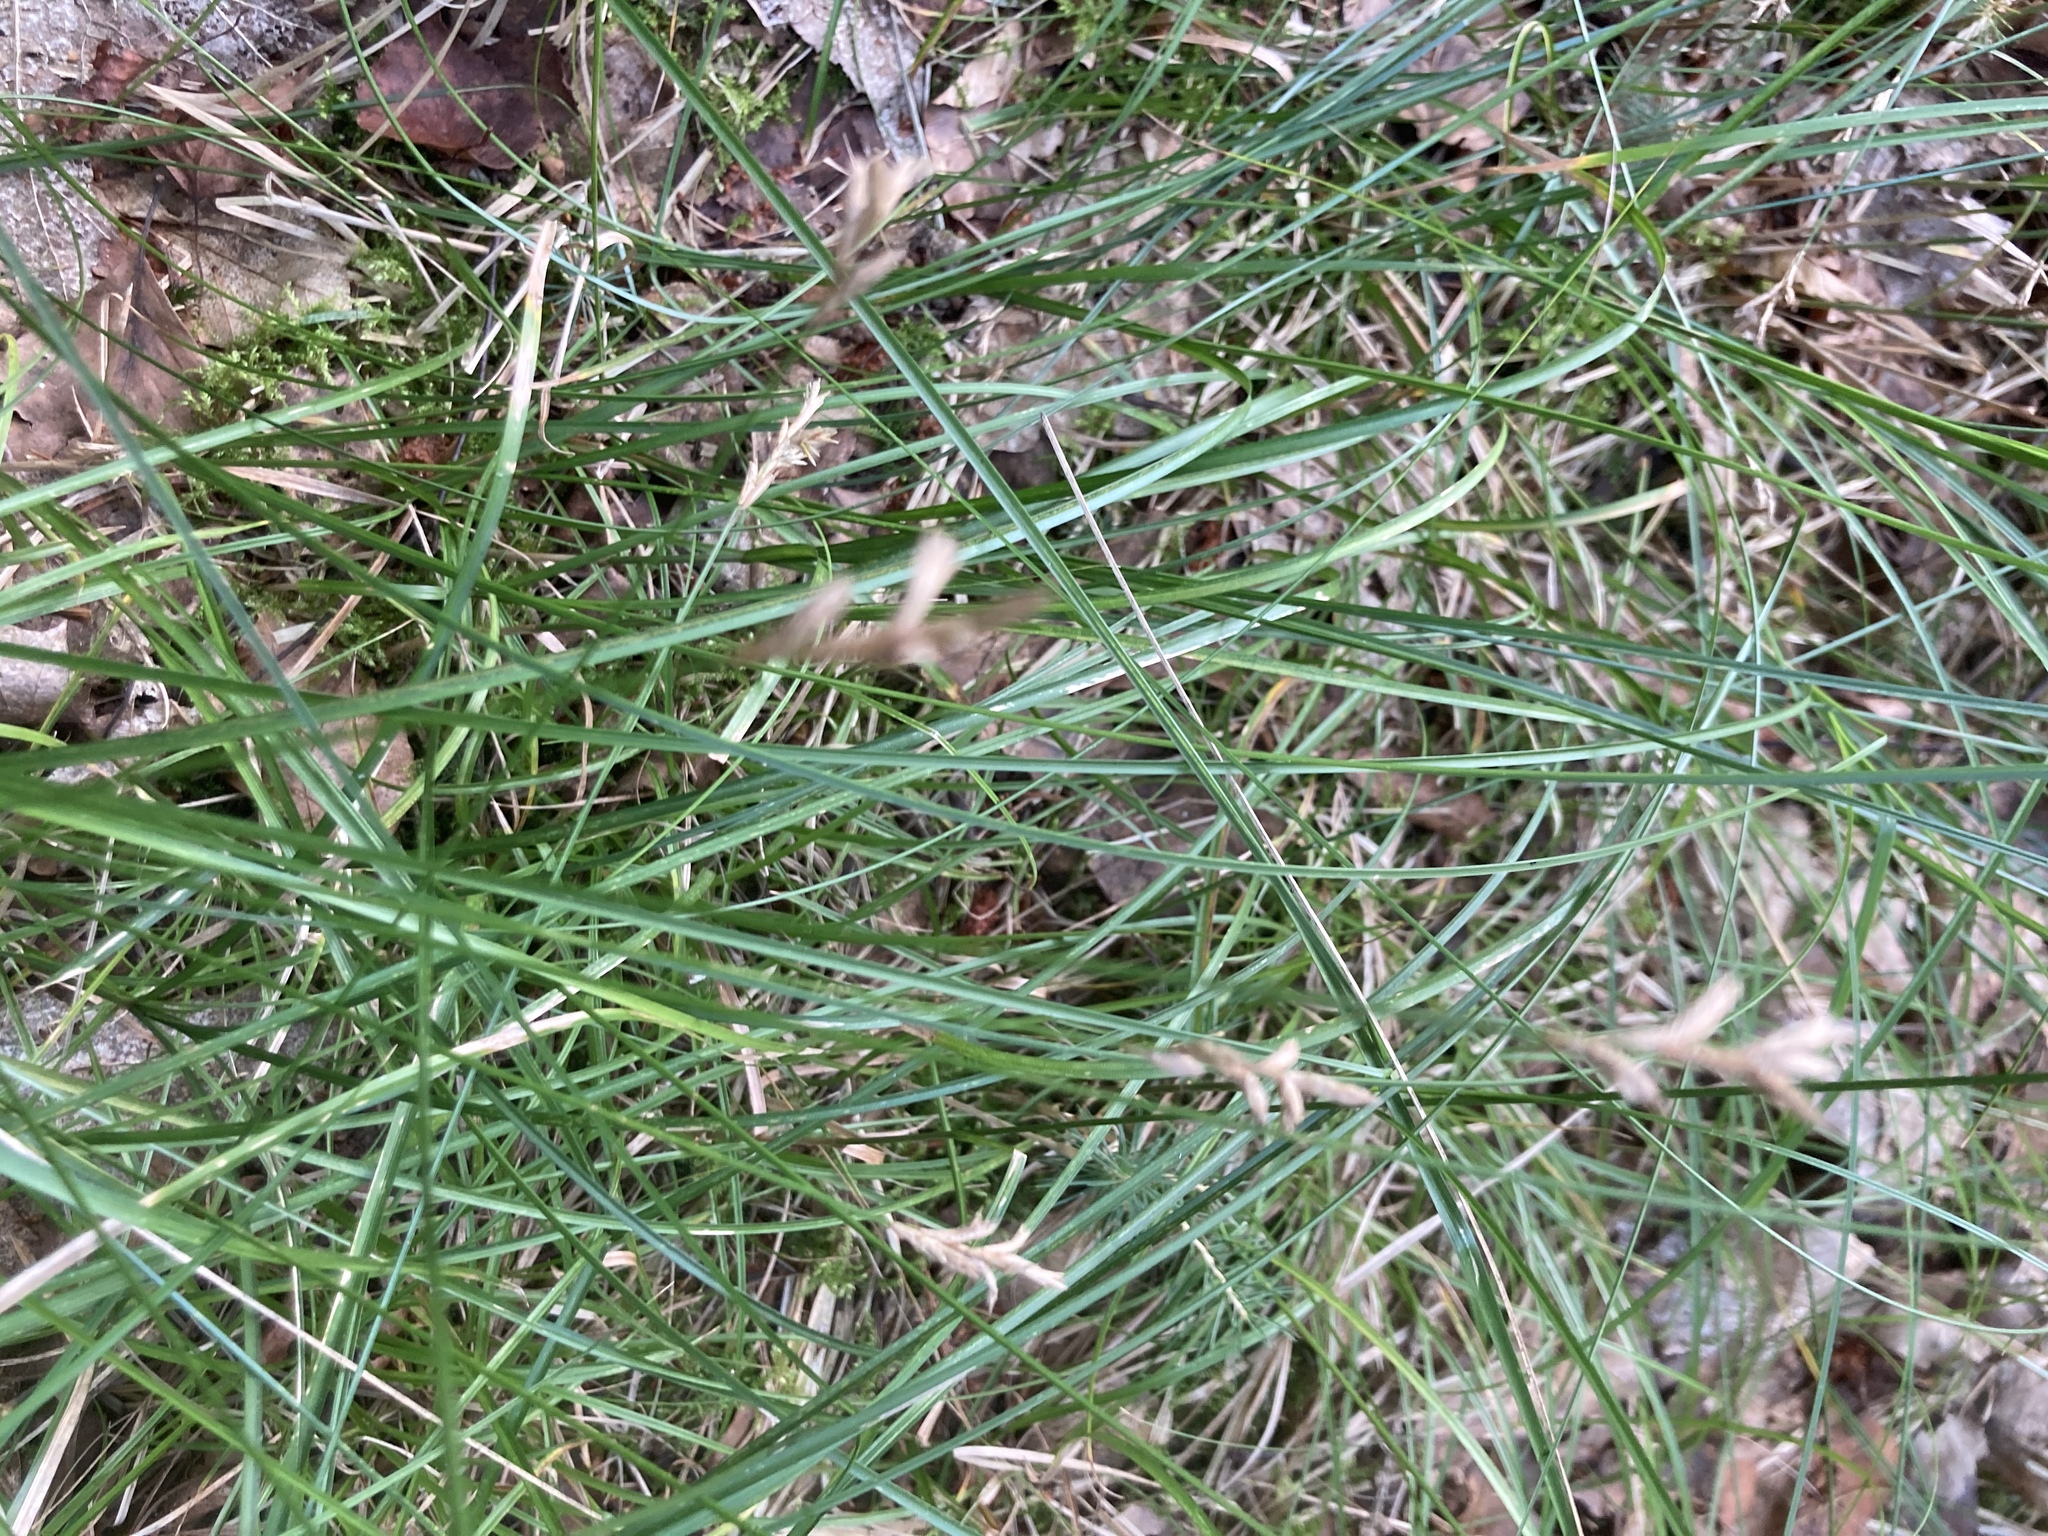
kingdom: Plantae
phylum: Tracheophyta
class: Liliopsida
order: Poales
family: Cyperaceae
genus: Carex
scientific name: Carex brizoides
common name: Quaking-grass sedge
